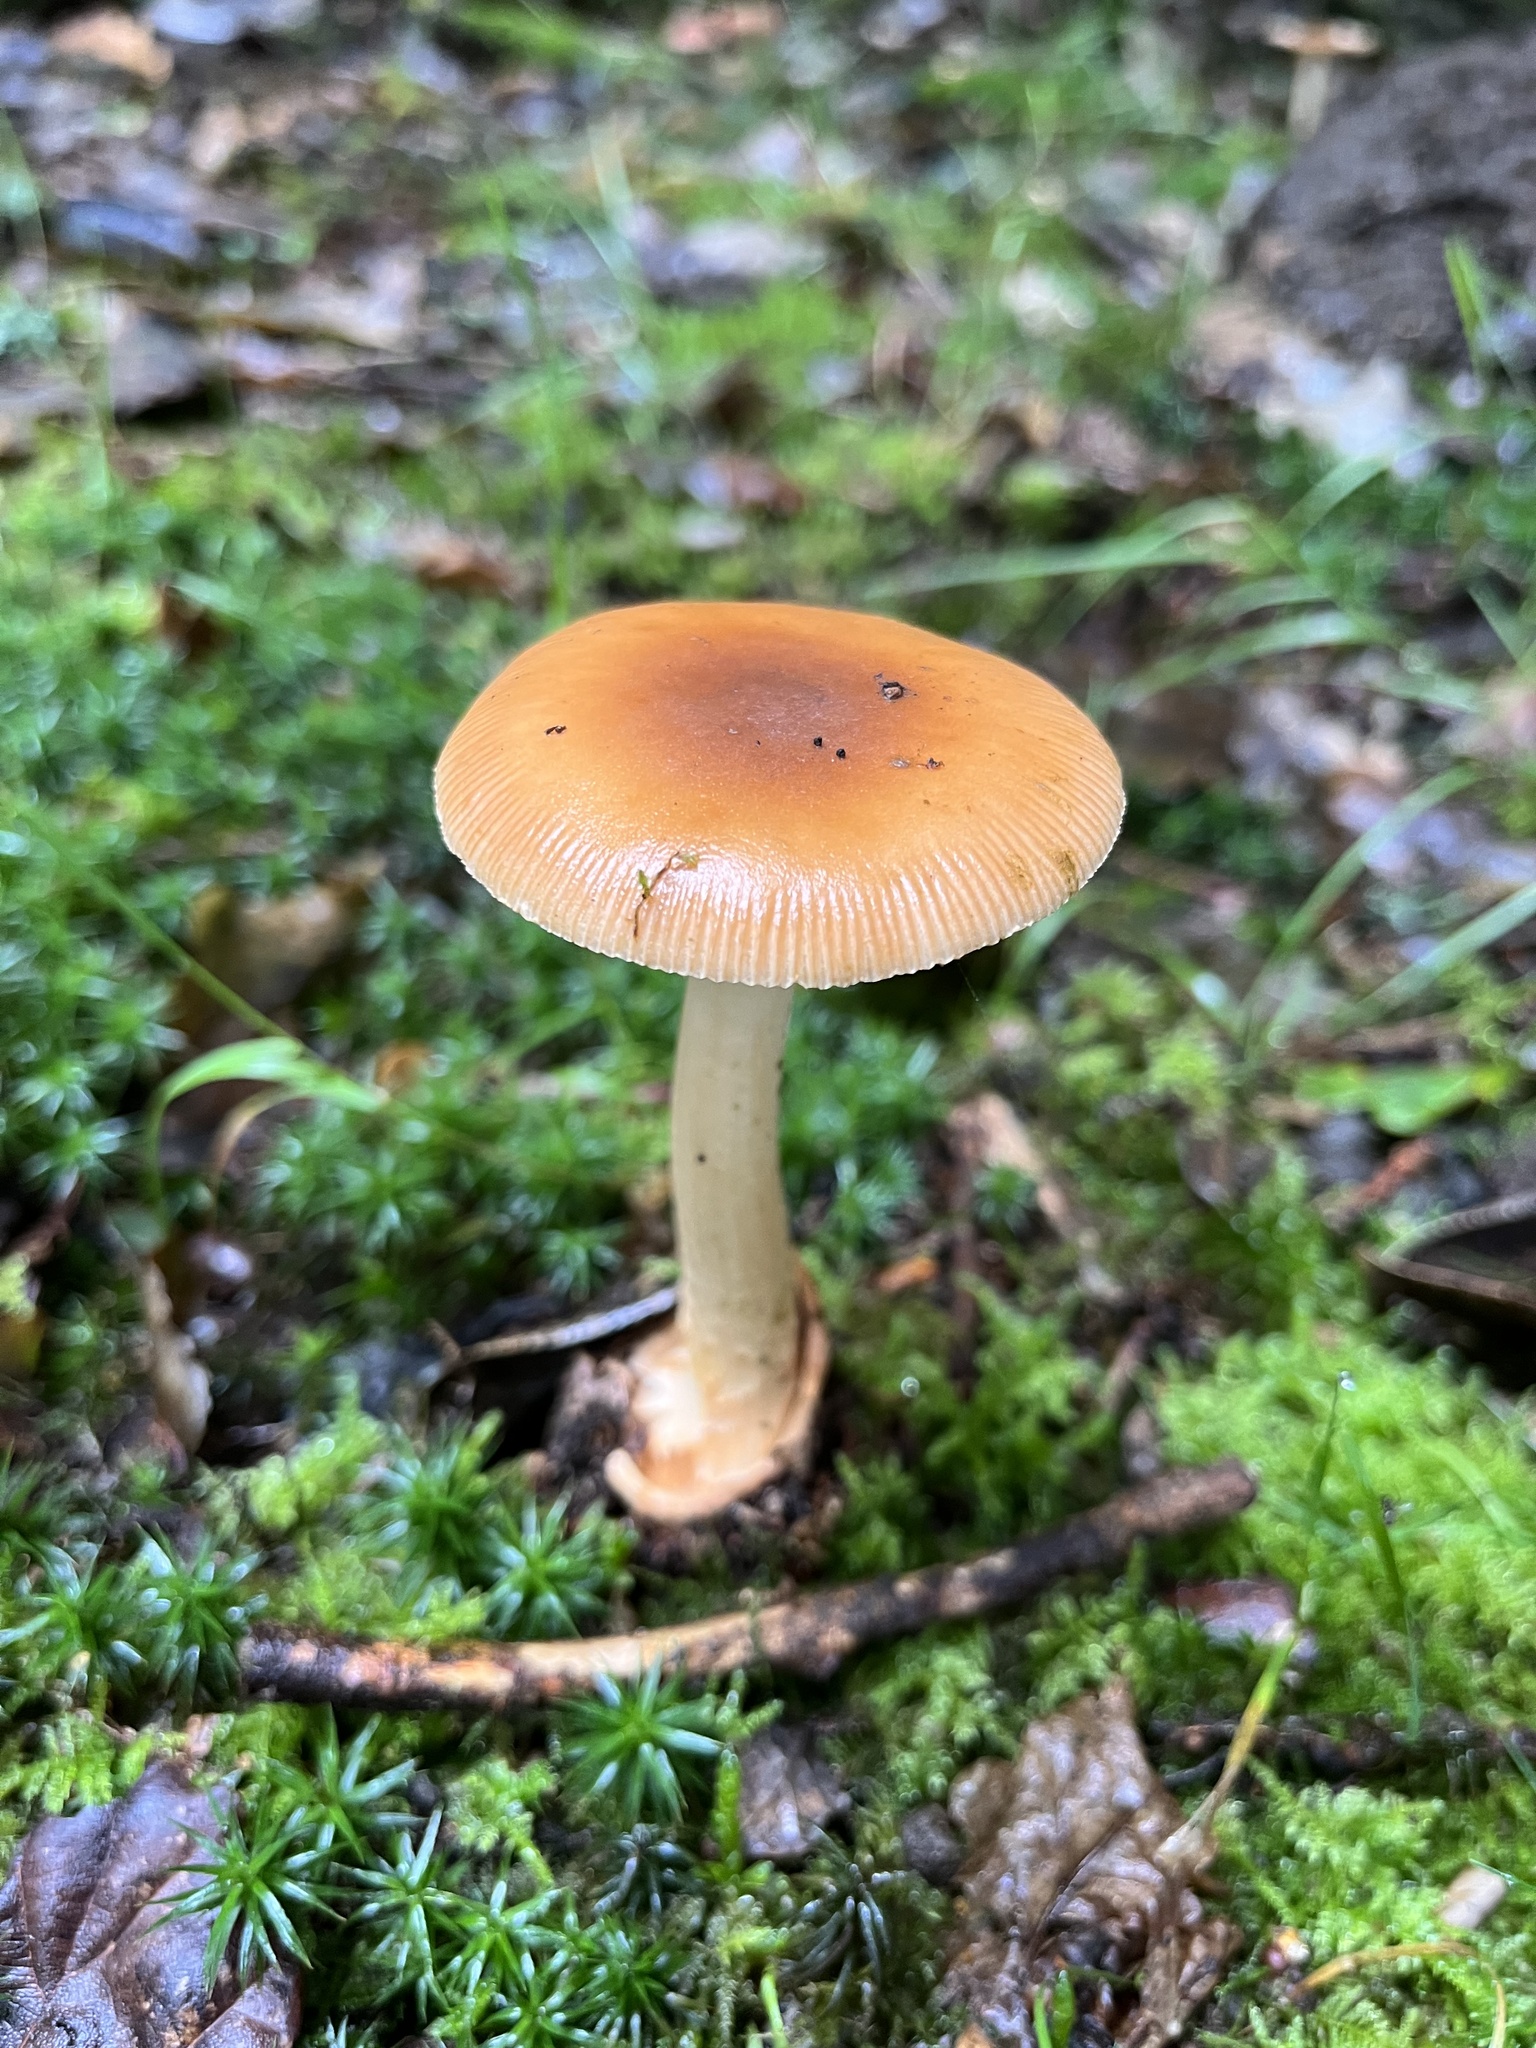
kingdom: Fungi
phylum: Basidiomycota
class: Agaricomycetes
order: Agaricales
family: Amanitaceae
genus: Amanita
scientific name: Amanita fulva
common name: Tawny grisette
